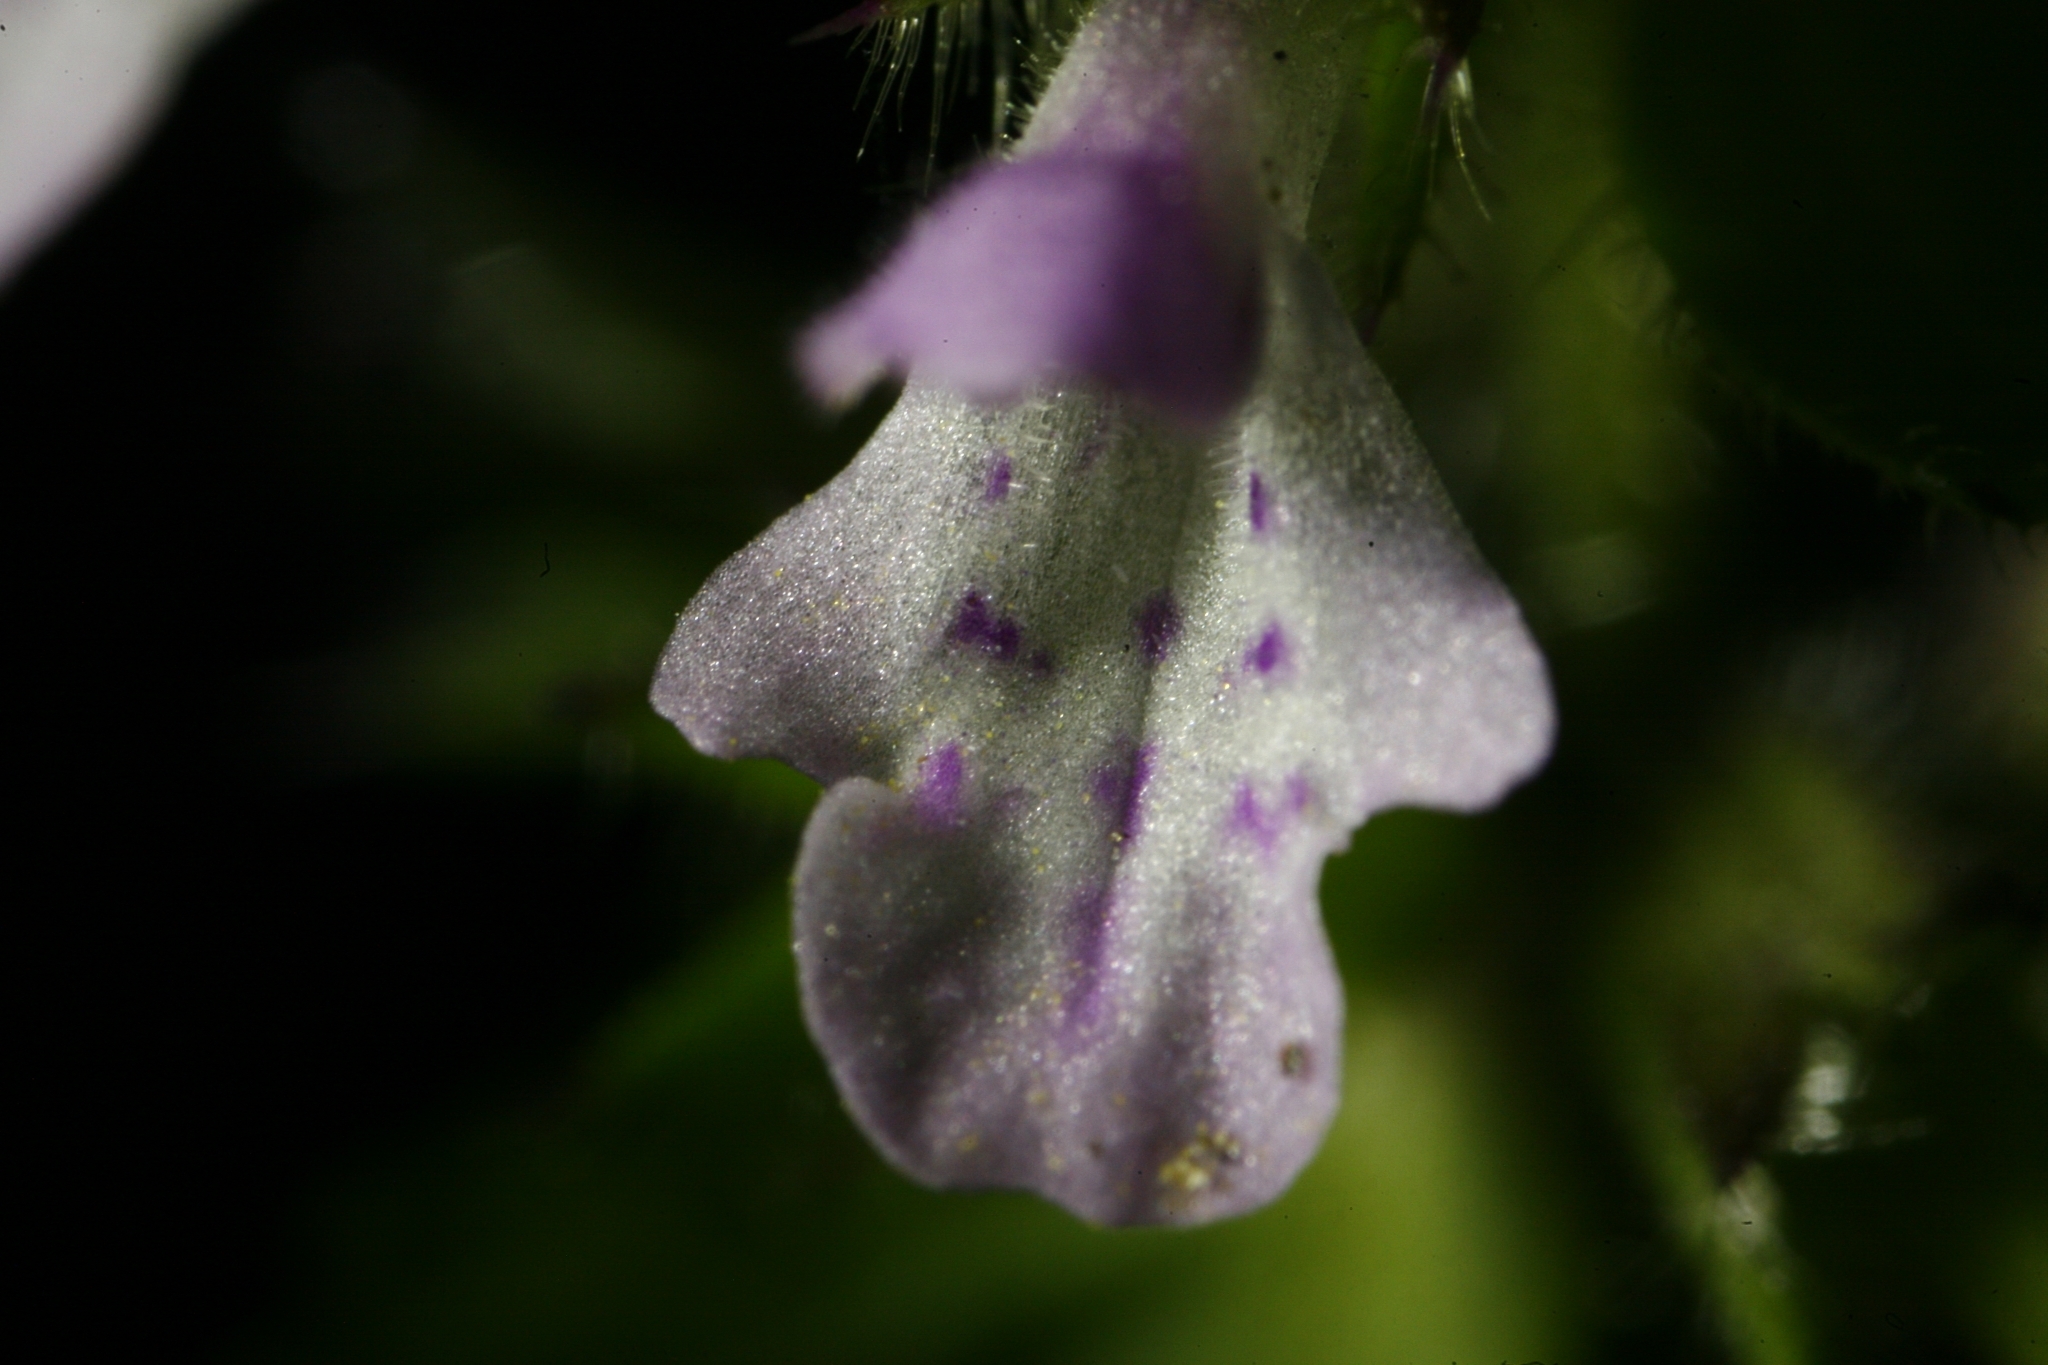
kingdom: Plantae
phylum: Tracheophyta
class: Magnoliopsida
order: Lamiales
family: Lamiaceae
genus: Stachys
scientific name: Stachys arvensis
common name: Field woundwort
